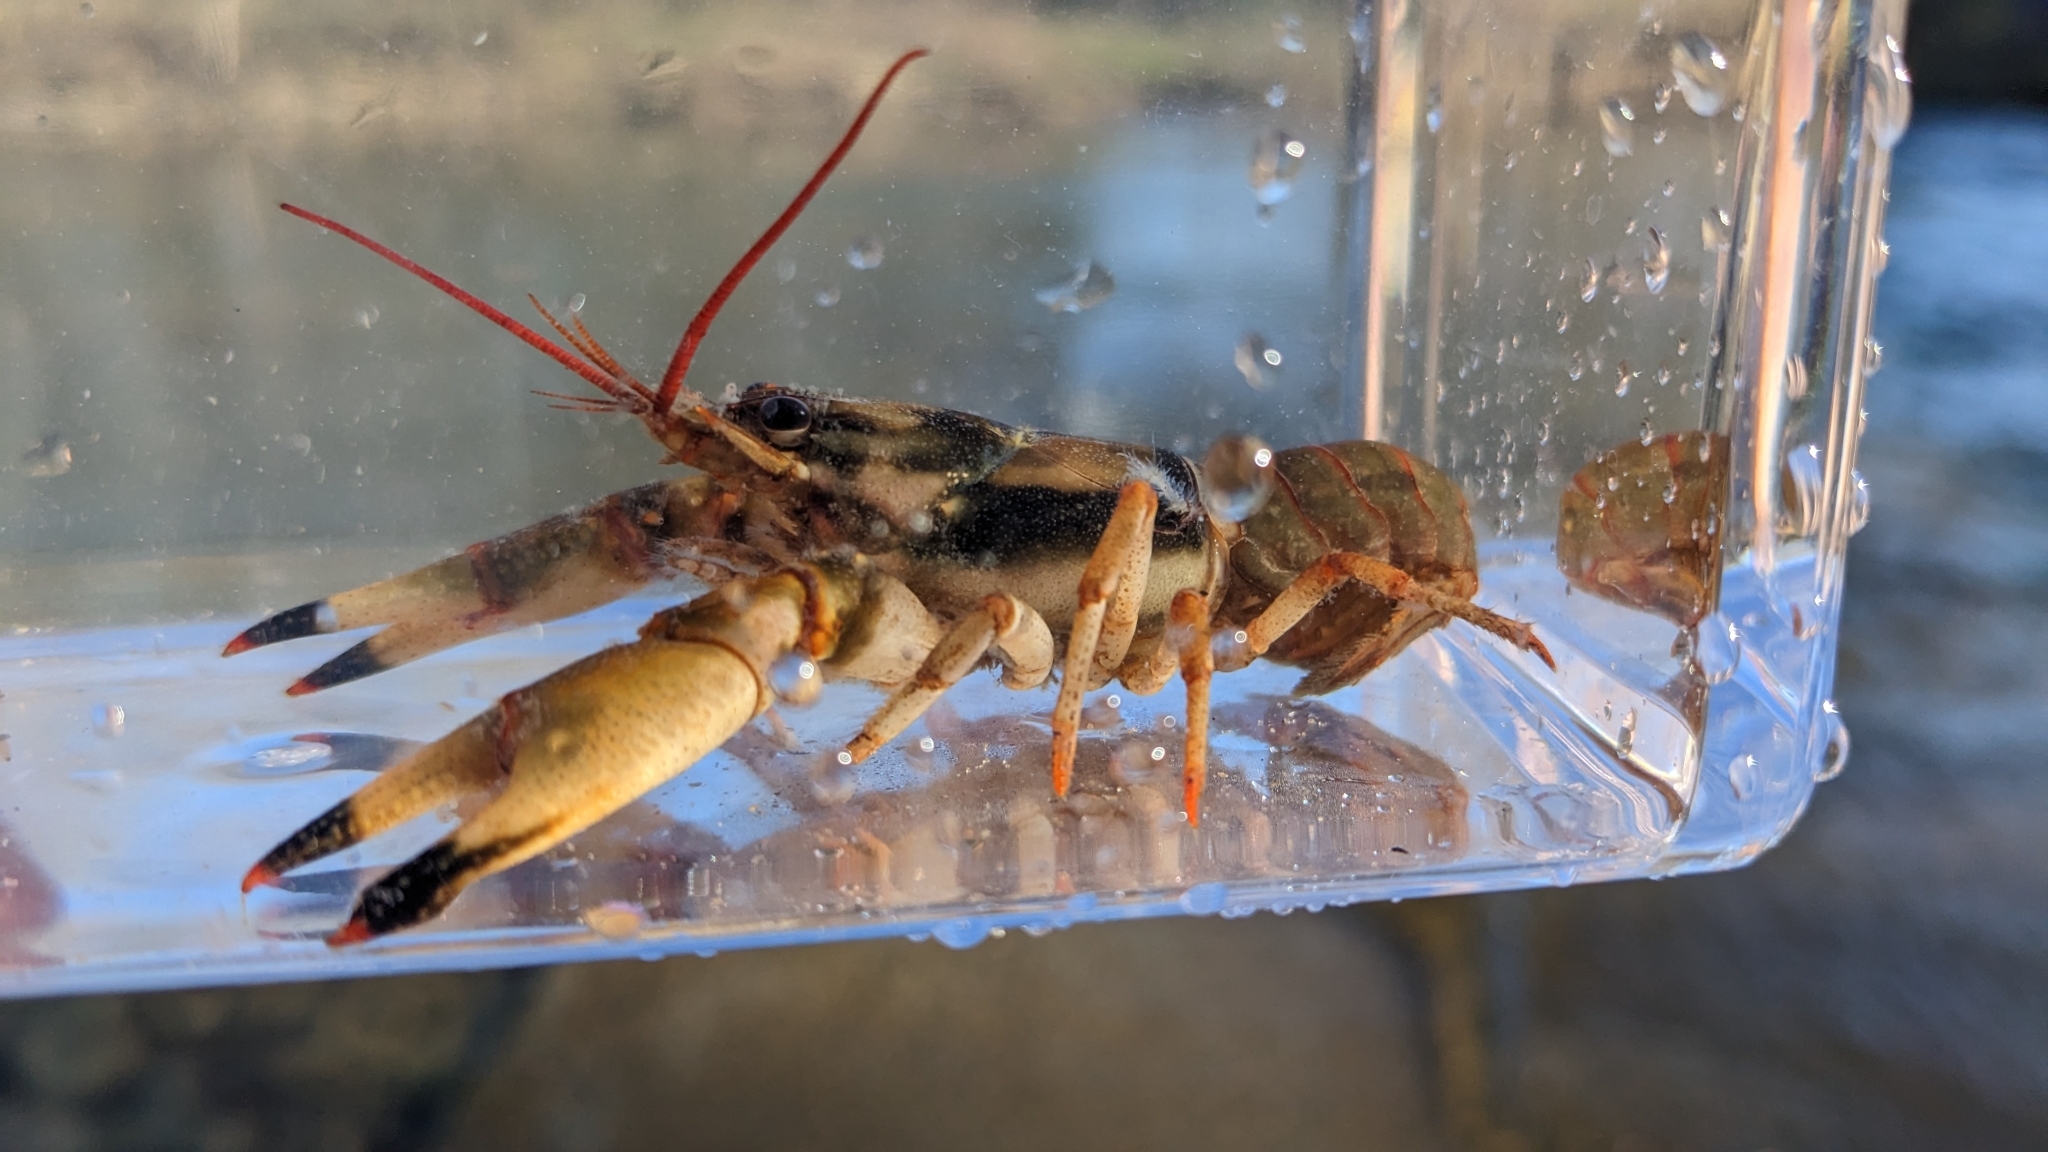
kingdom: Animalia
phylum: Arthropoda
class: Malacostraca
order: Decapoda
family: Cambaridae
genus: Faxonius
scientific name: Faxonius durelli
